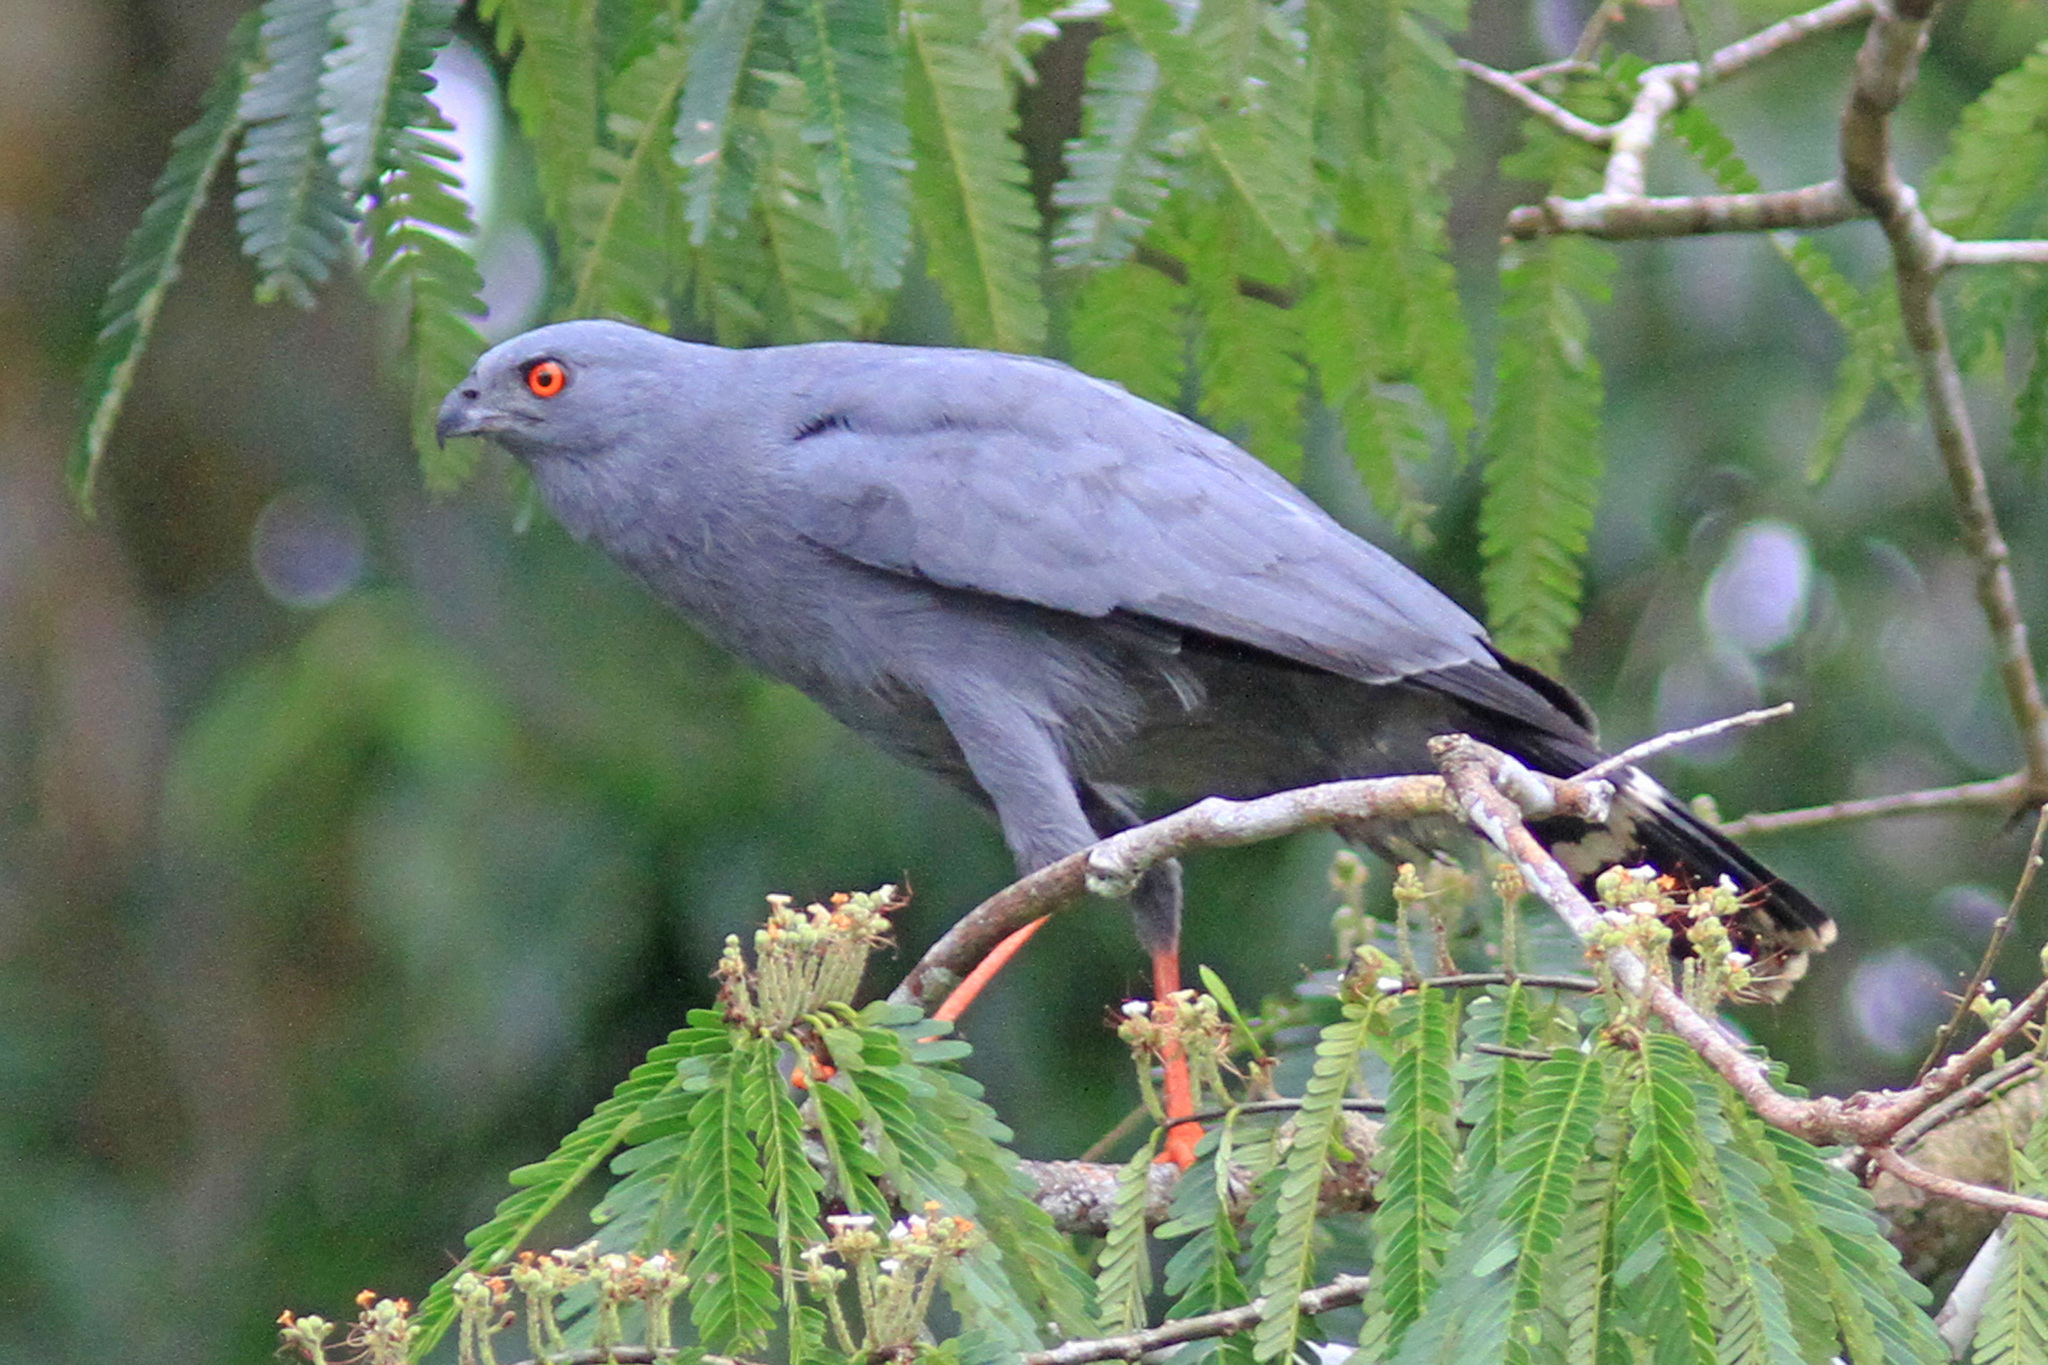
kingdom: Animalia
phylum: Chordata
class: Aves
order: Accipitriformes
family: Accipitridae
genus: Geranospiza
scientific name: Geranospiza caerulescens
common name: Crane hawk
